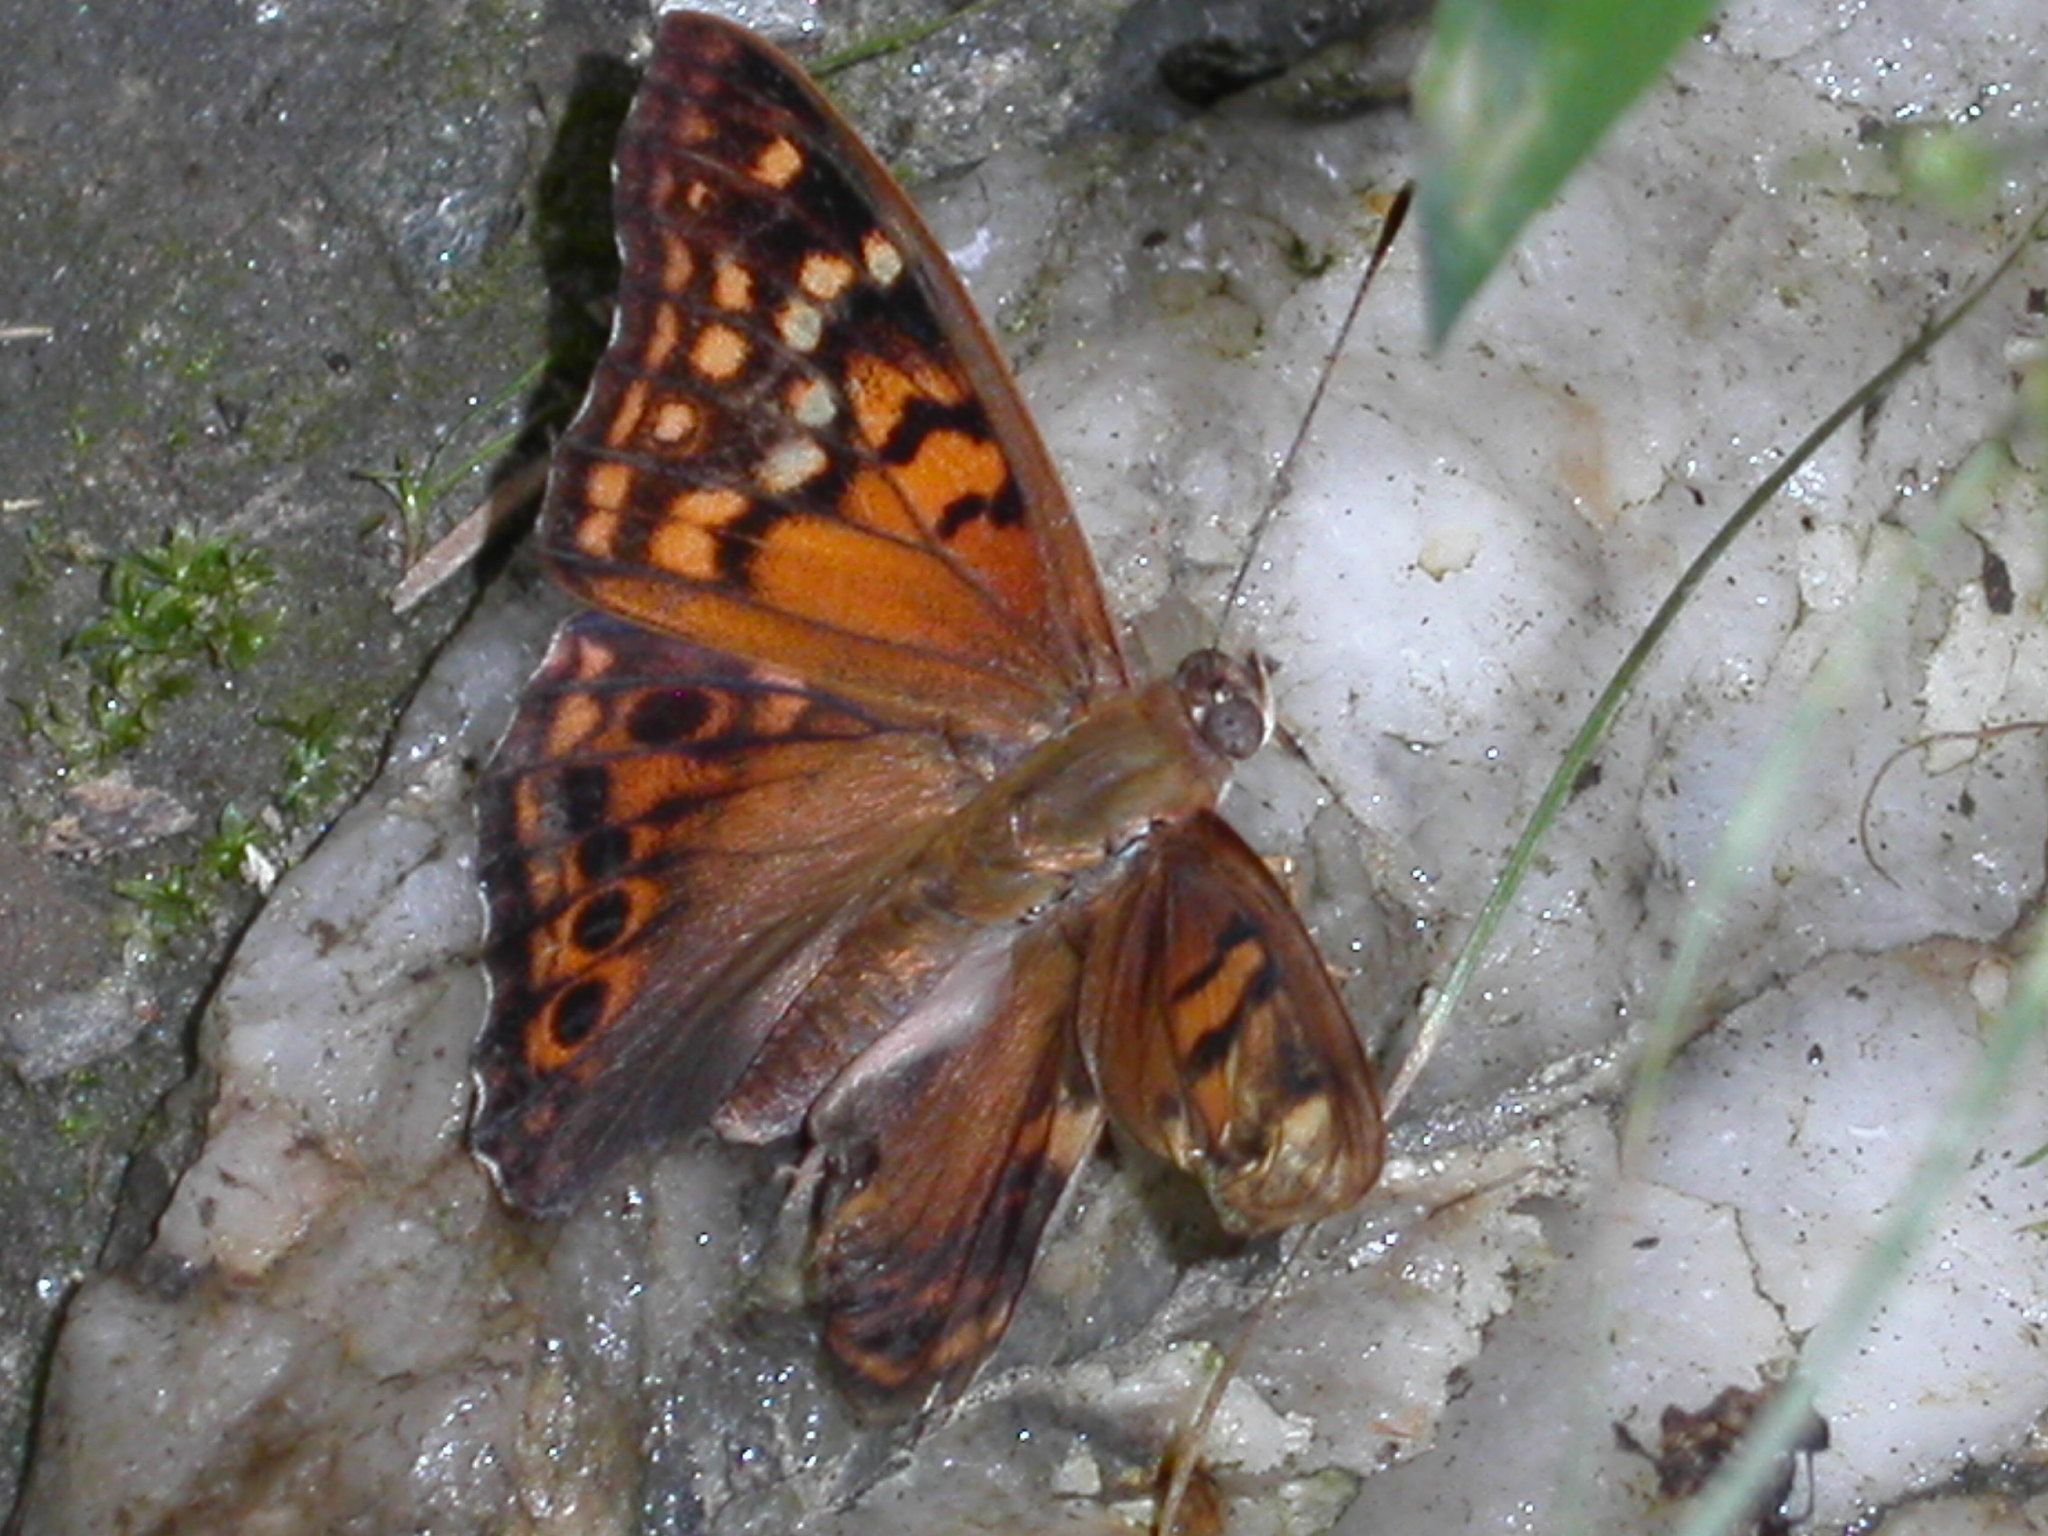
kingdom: Animalia
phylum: Arthropoda
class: Insecta
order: Lepidoptera
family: Nymphalidae
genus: Asterocampa
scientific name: Asterocampa clyton
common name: Tawny emperor
